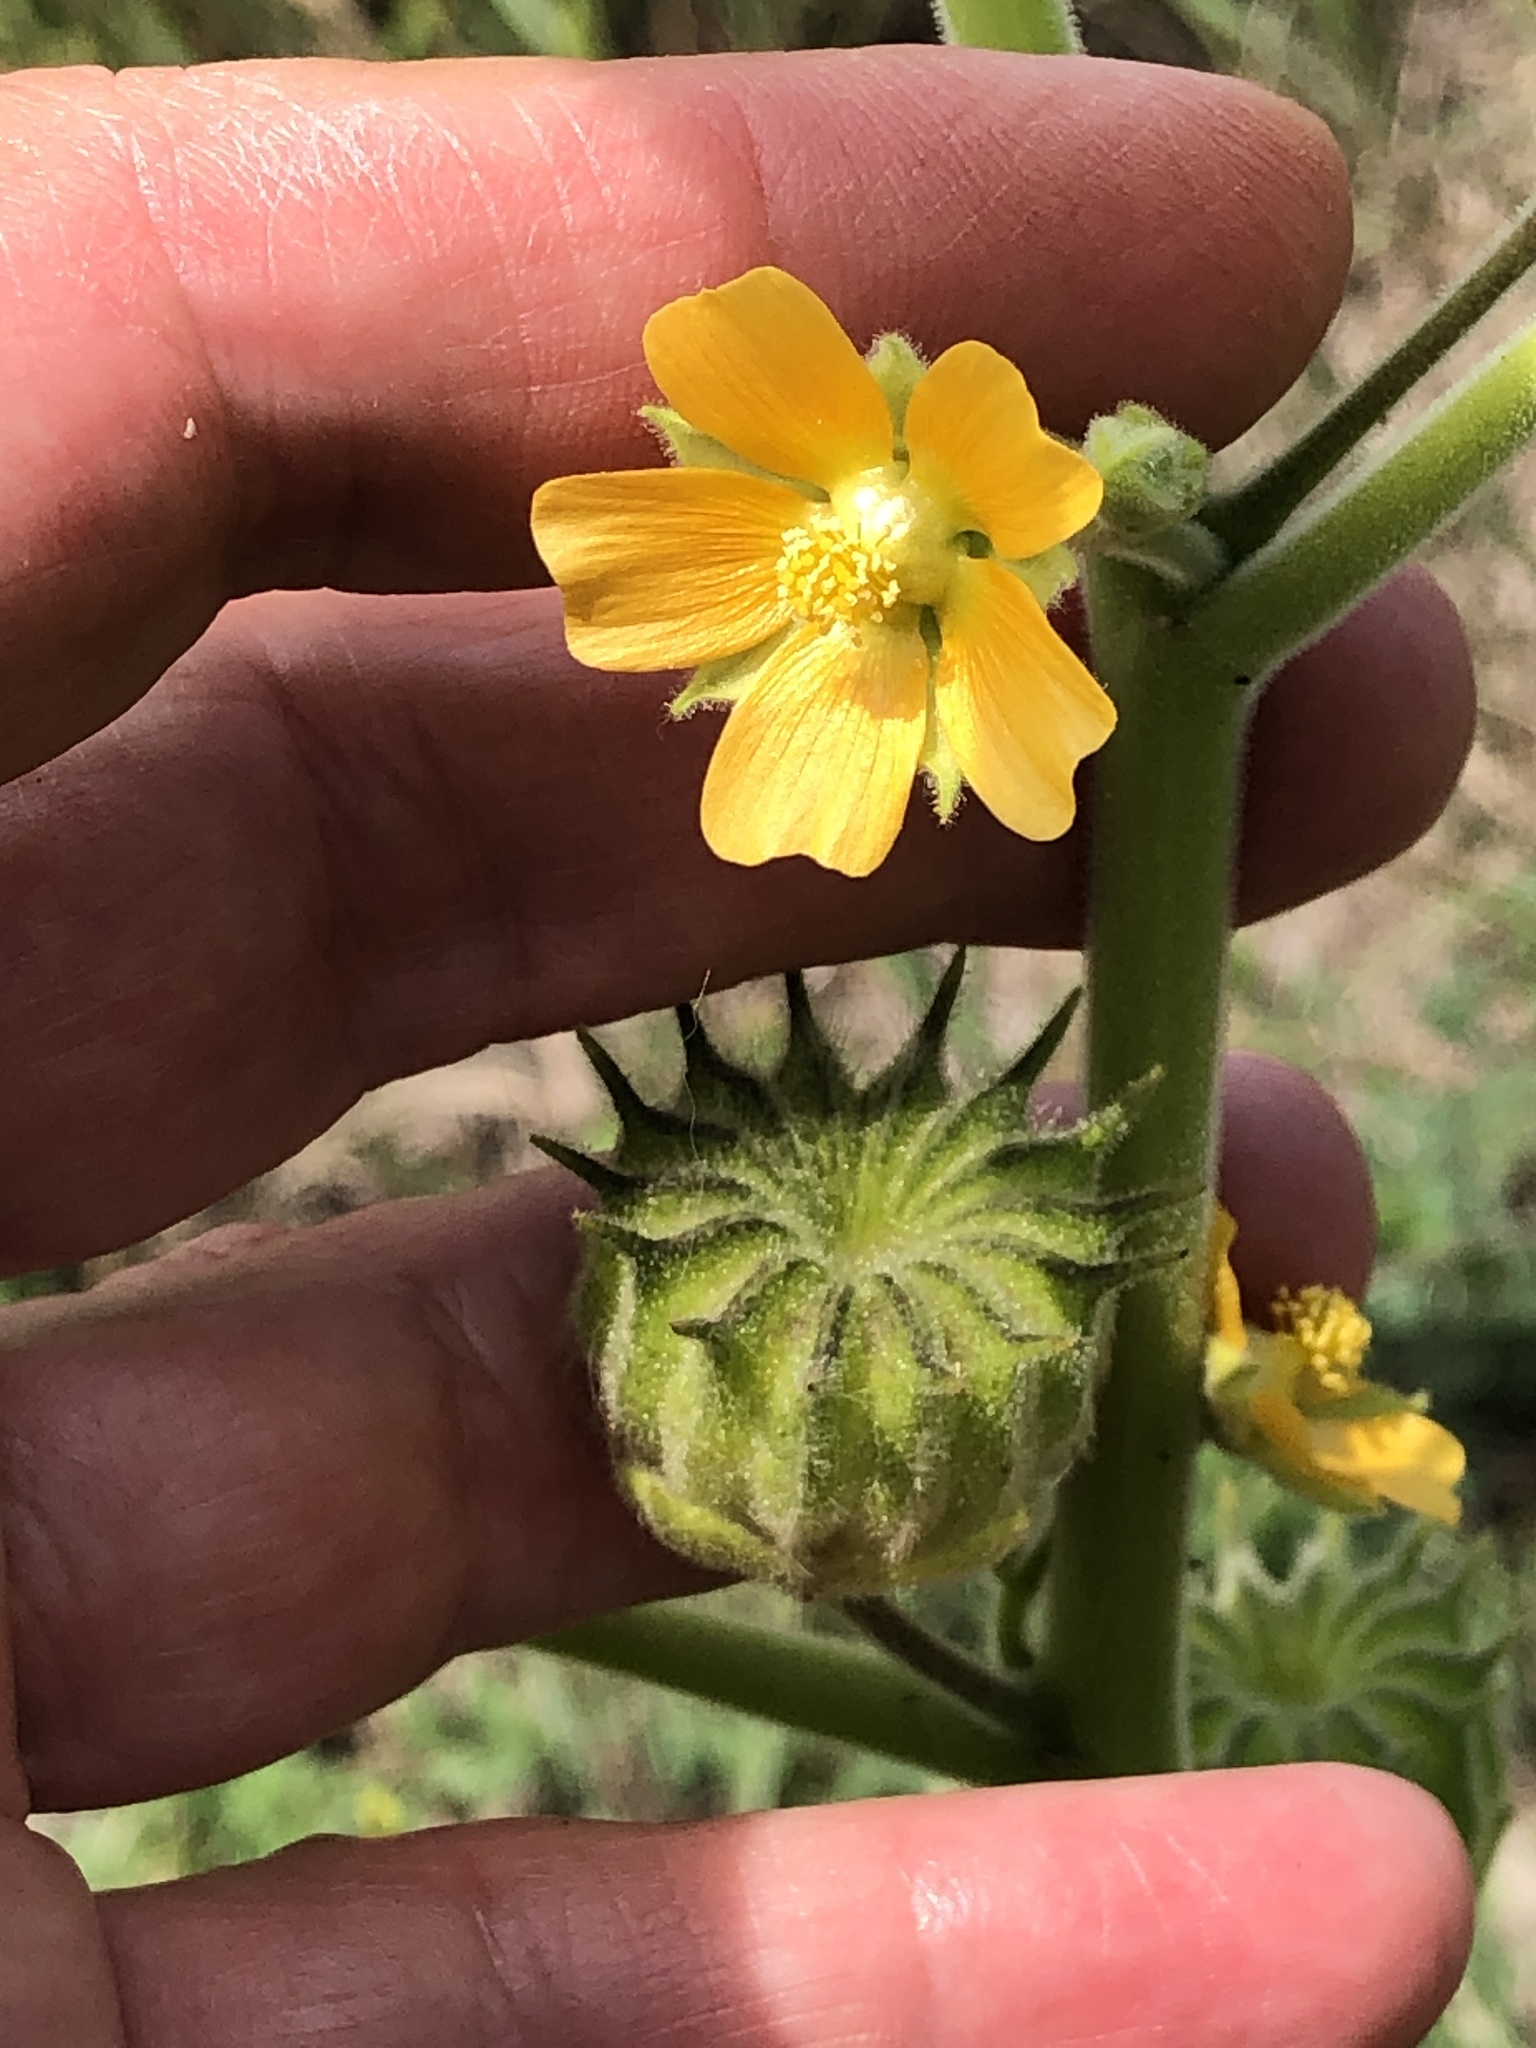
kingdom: Plantae
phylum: Tracheophyta
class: Magnoliopsida
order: Malvales
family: Malvaceae
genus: Abutilon
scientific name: Abutilon theophrasti
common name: Velvetleaf
